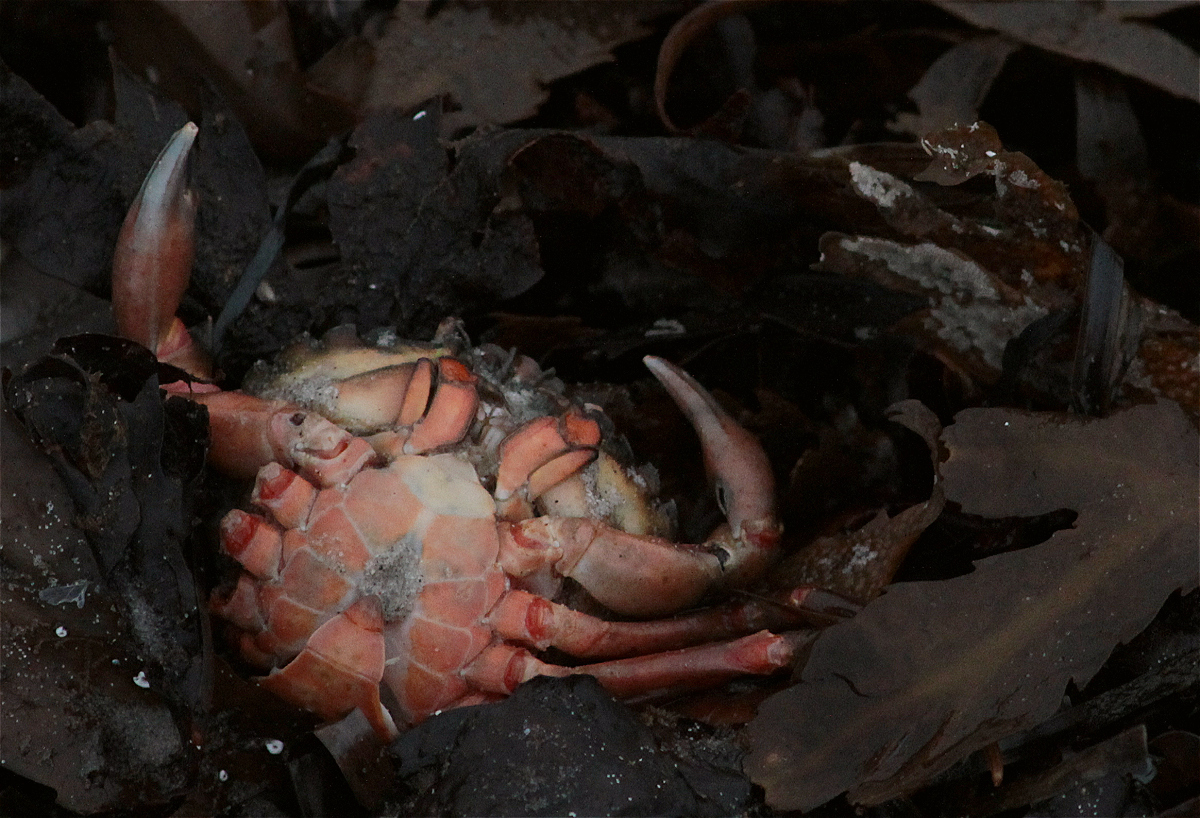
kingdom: Animalia
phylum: Arthropoda
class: Malacostraca
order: Decapoda
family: Carcinidae
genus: Carcinus
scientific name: Carcinus maenas
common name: European green crab
